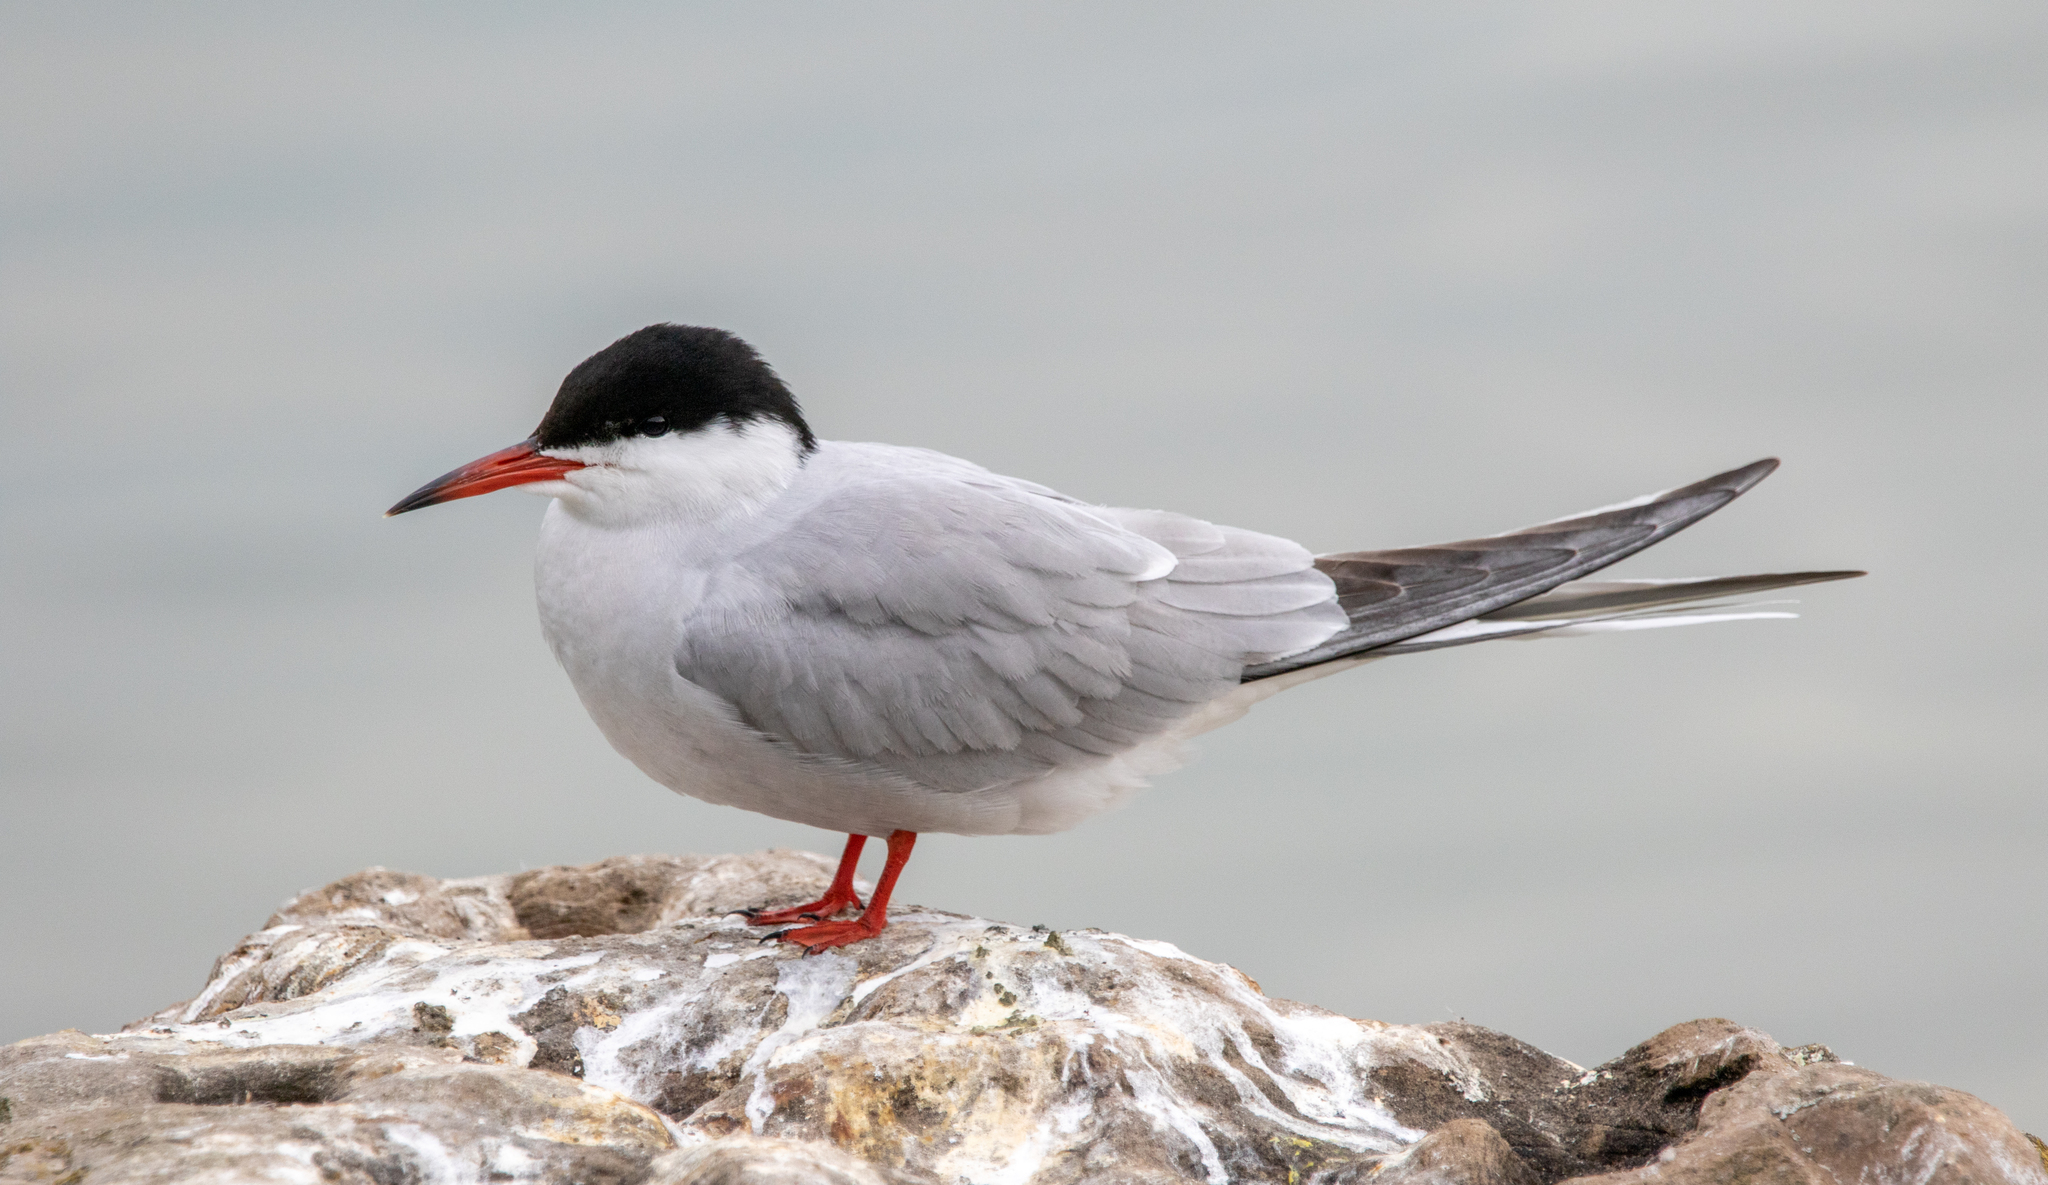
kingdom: Animalia
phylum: Chordata
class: Aves
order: Charadriiformes
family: Laridae
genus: Sterna
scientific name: Sterna hirundo
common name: Common tern
